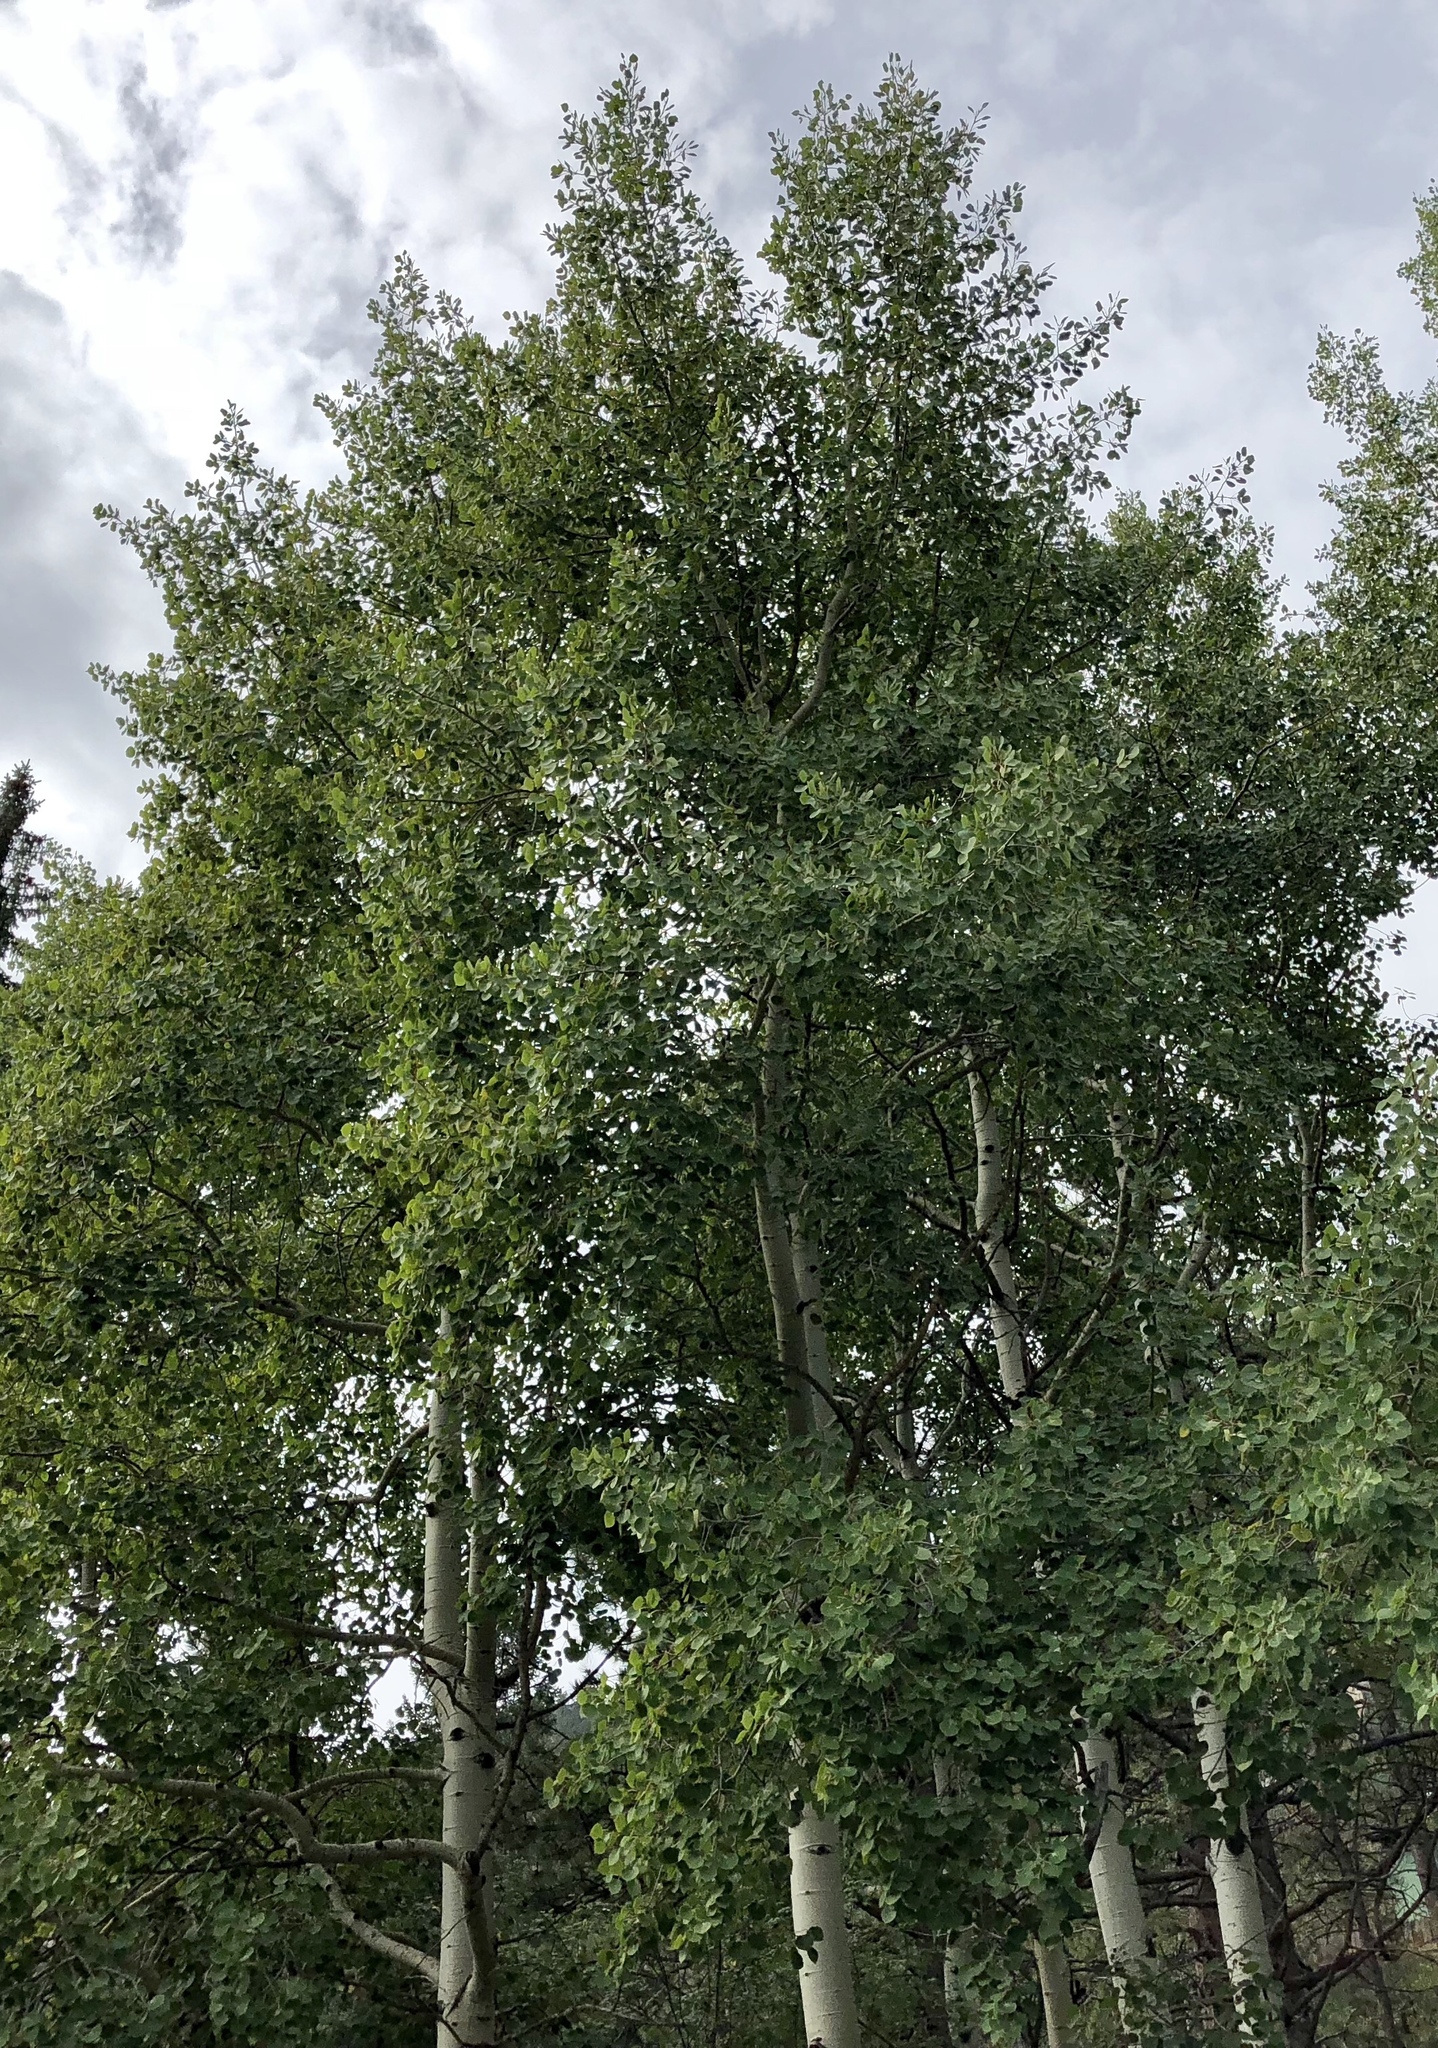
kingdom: Plantae
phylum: Tracheophyta
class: Magnoliopsida
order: Malpighiales
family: Salicaceae
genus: Populus
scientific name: Populus tremuloides
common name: Quaking aspen
